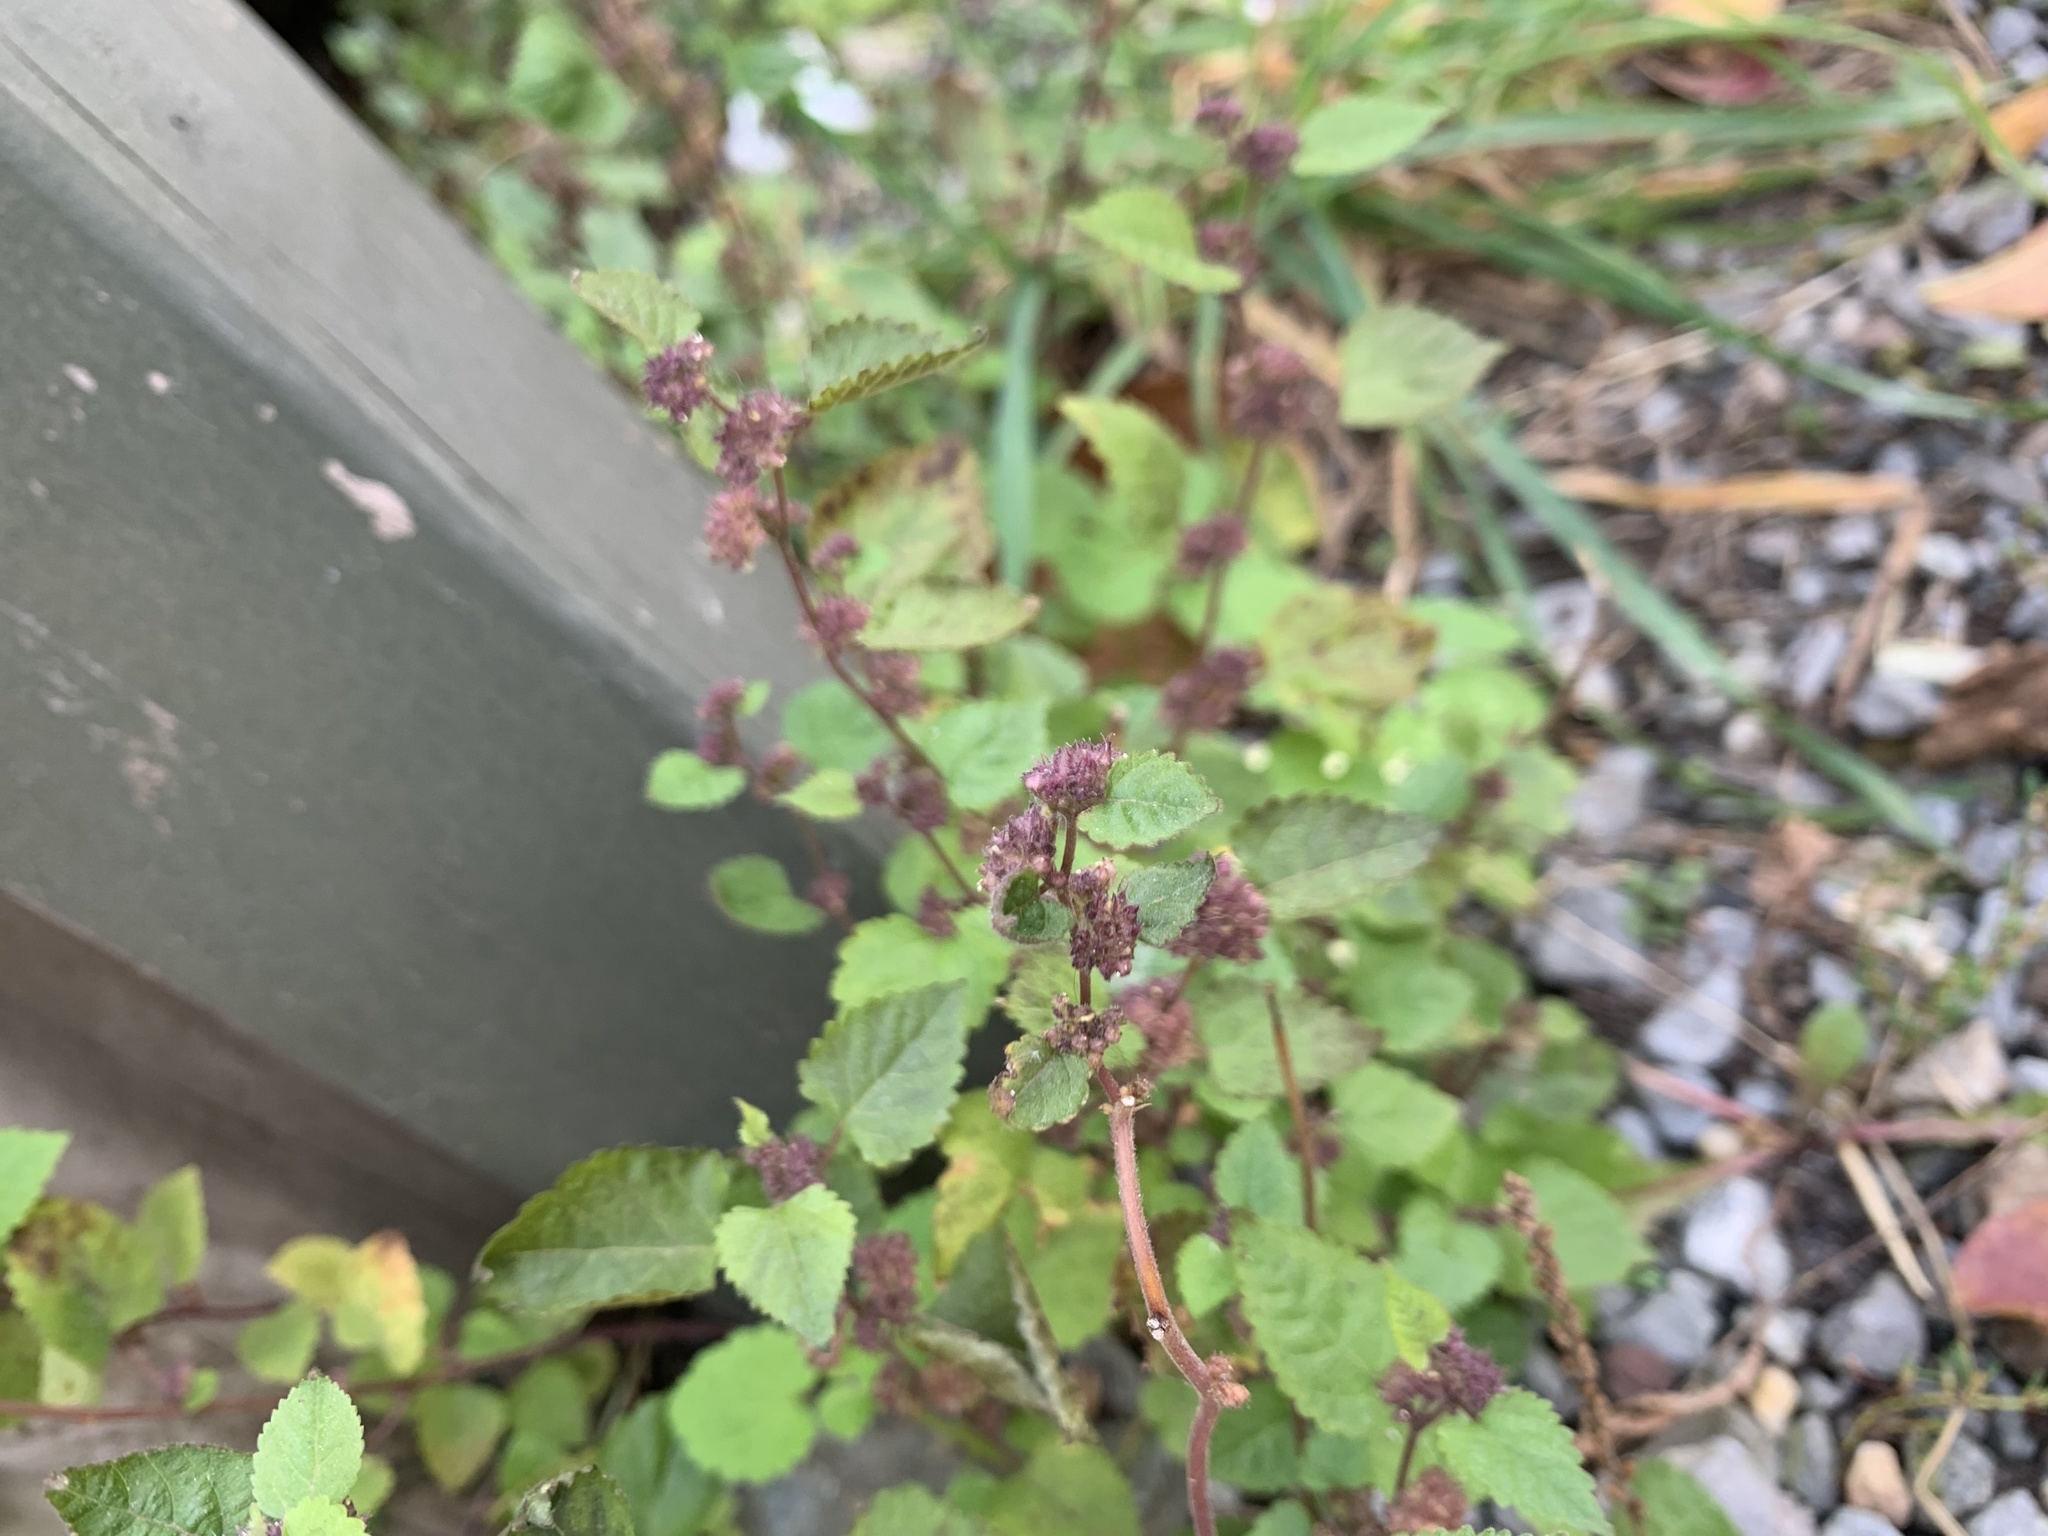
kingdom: Plantae
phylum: Tracheophyta
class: Magnoliopsida
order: Rosales
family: Moraceae
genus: Fatoua
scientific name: Fatoua villosa
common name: Hairy crabweed
